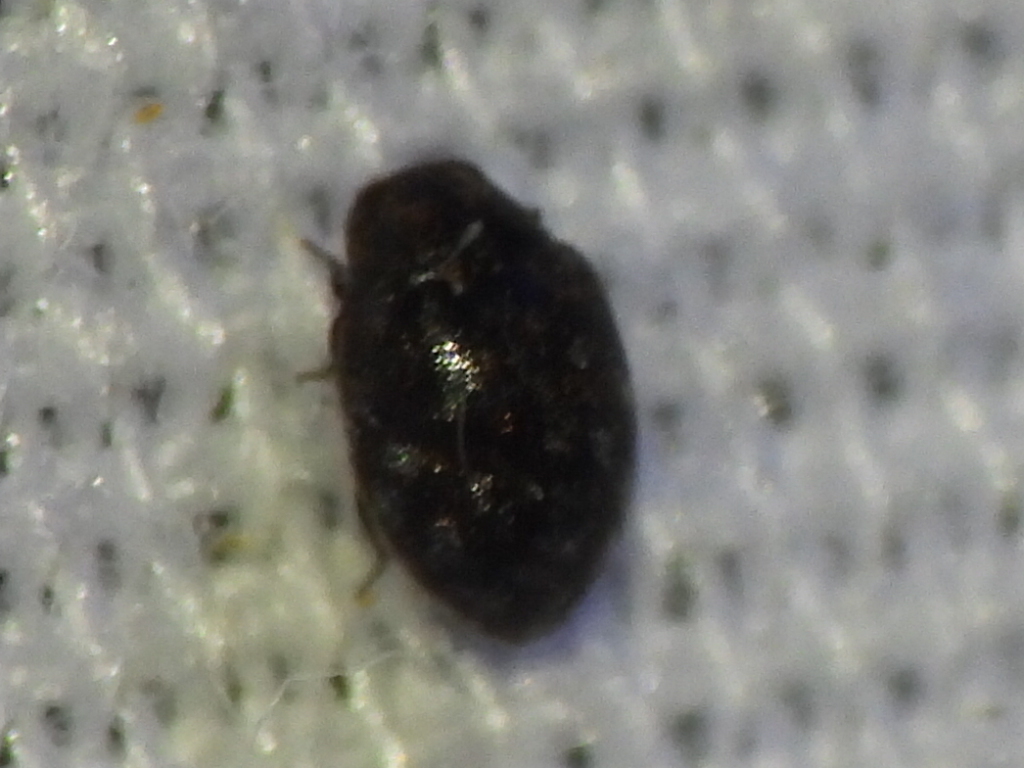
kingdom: Animalia
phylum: Arthropoda
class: Insecta
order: Coleoptera
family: Limnichidae
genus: Eulimnichus
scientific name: Eulimnichus ater
